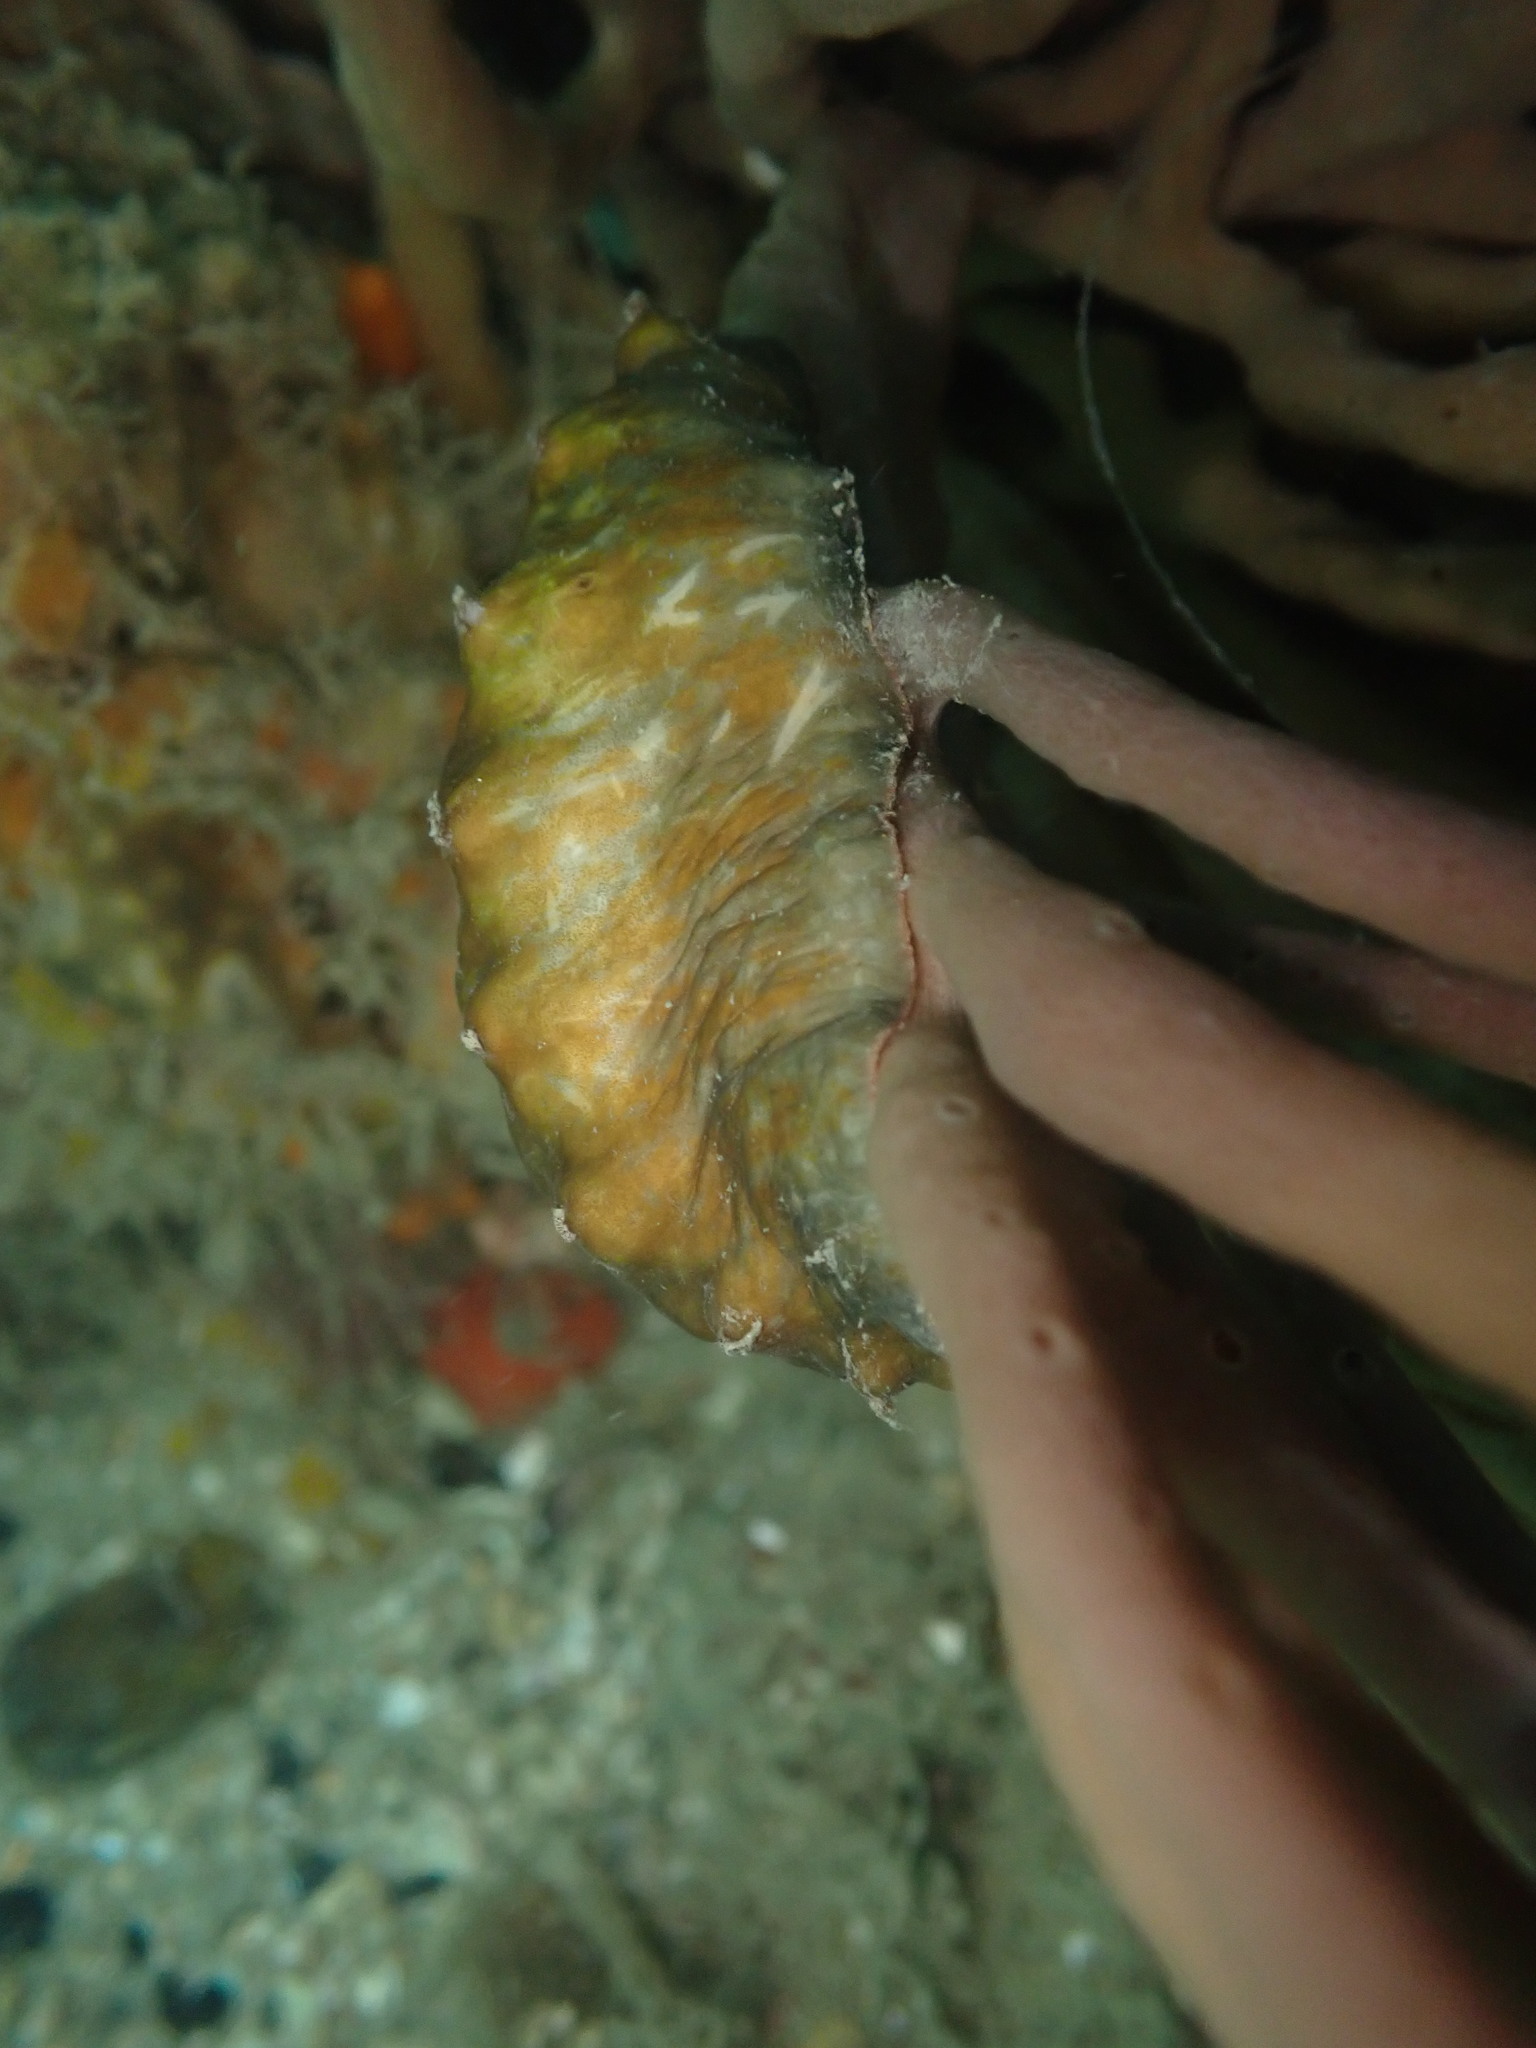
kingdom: Animalia
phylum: Mollusca
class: Polyplacophora
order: Chitonida
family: Acanthochitonidae
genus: Cryptoconchus
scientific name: Cryptoconchus porosus
